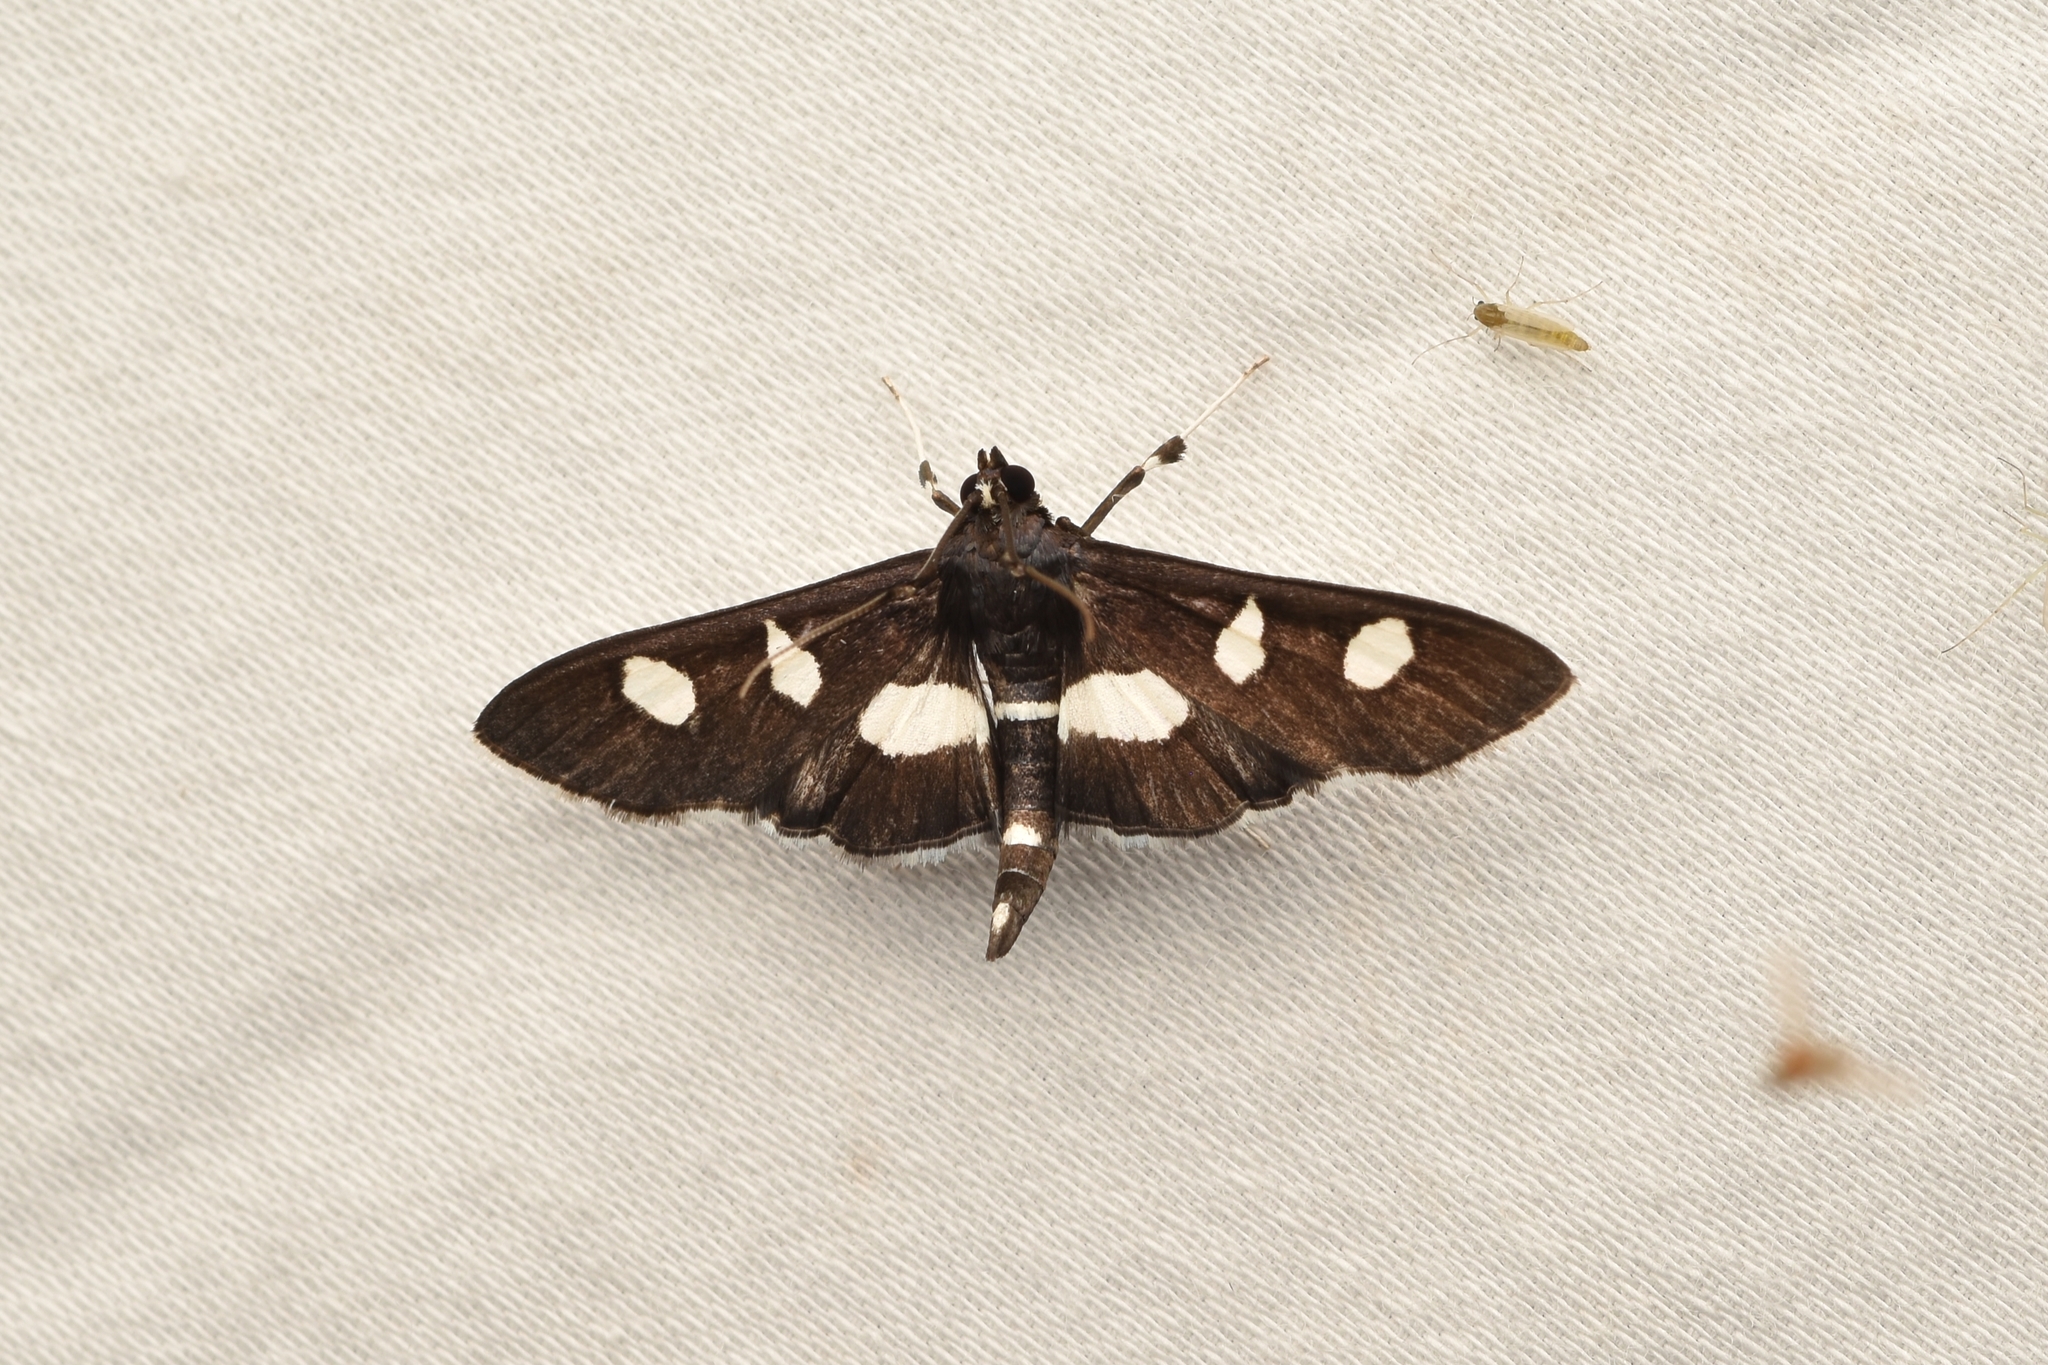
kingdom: Animalia
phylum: Arthropoda
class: Insecta
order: Lepidoptera
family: Crambidae
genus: Desmia
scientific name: Desmia
